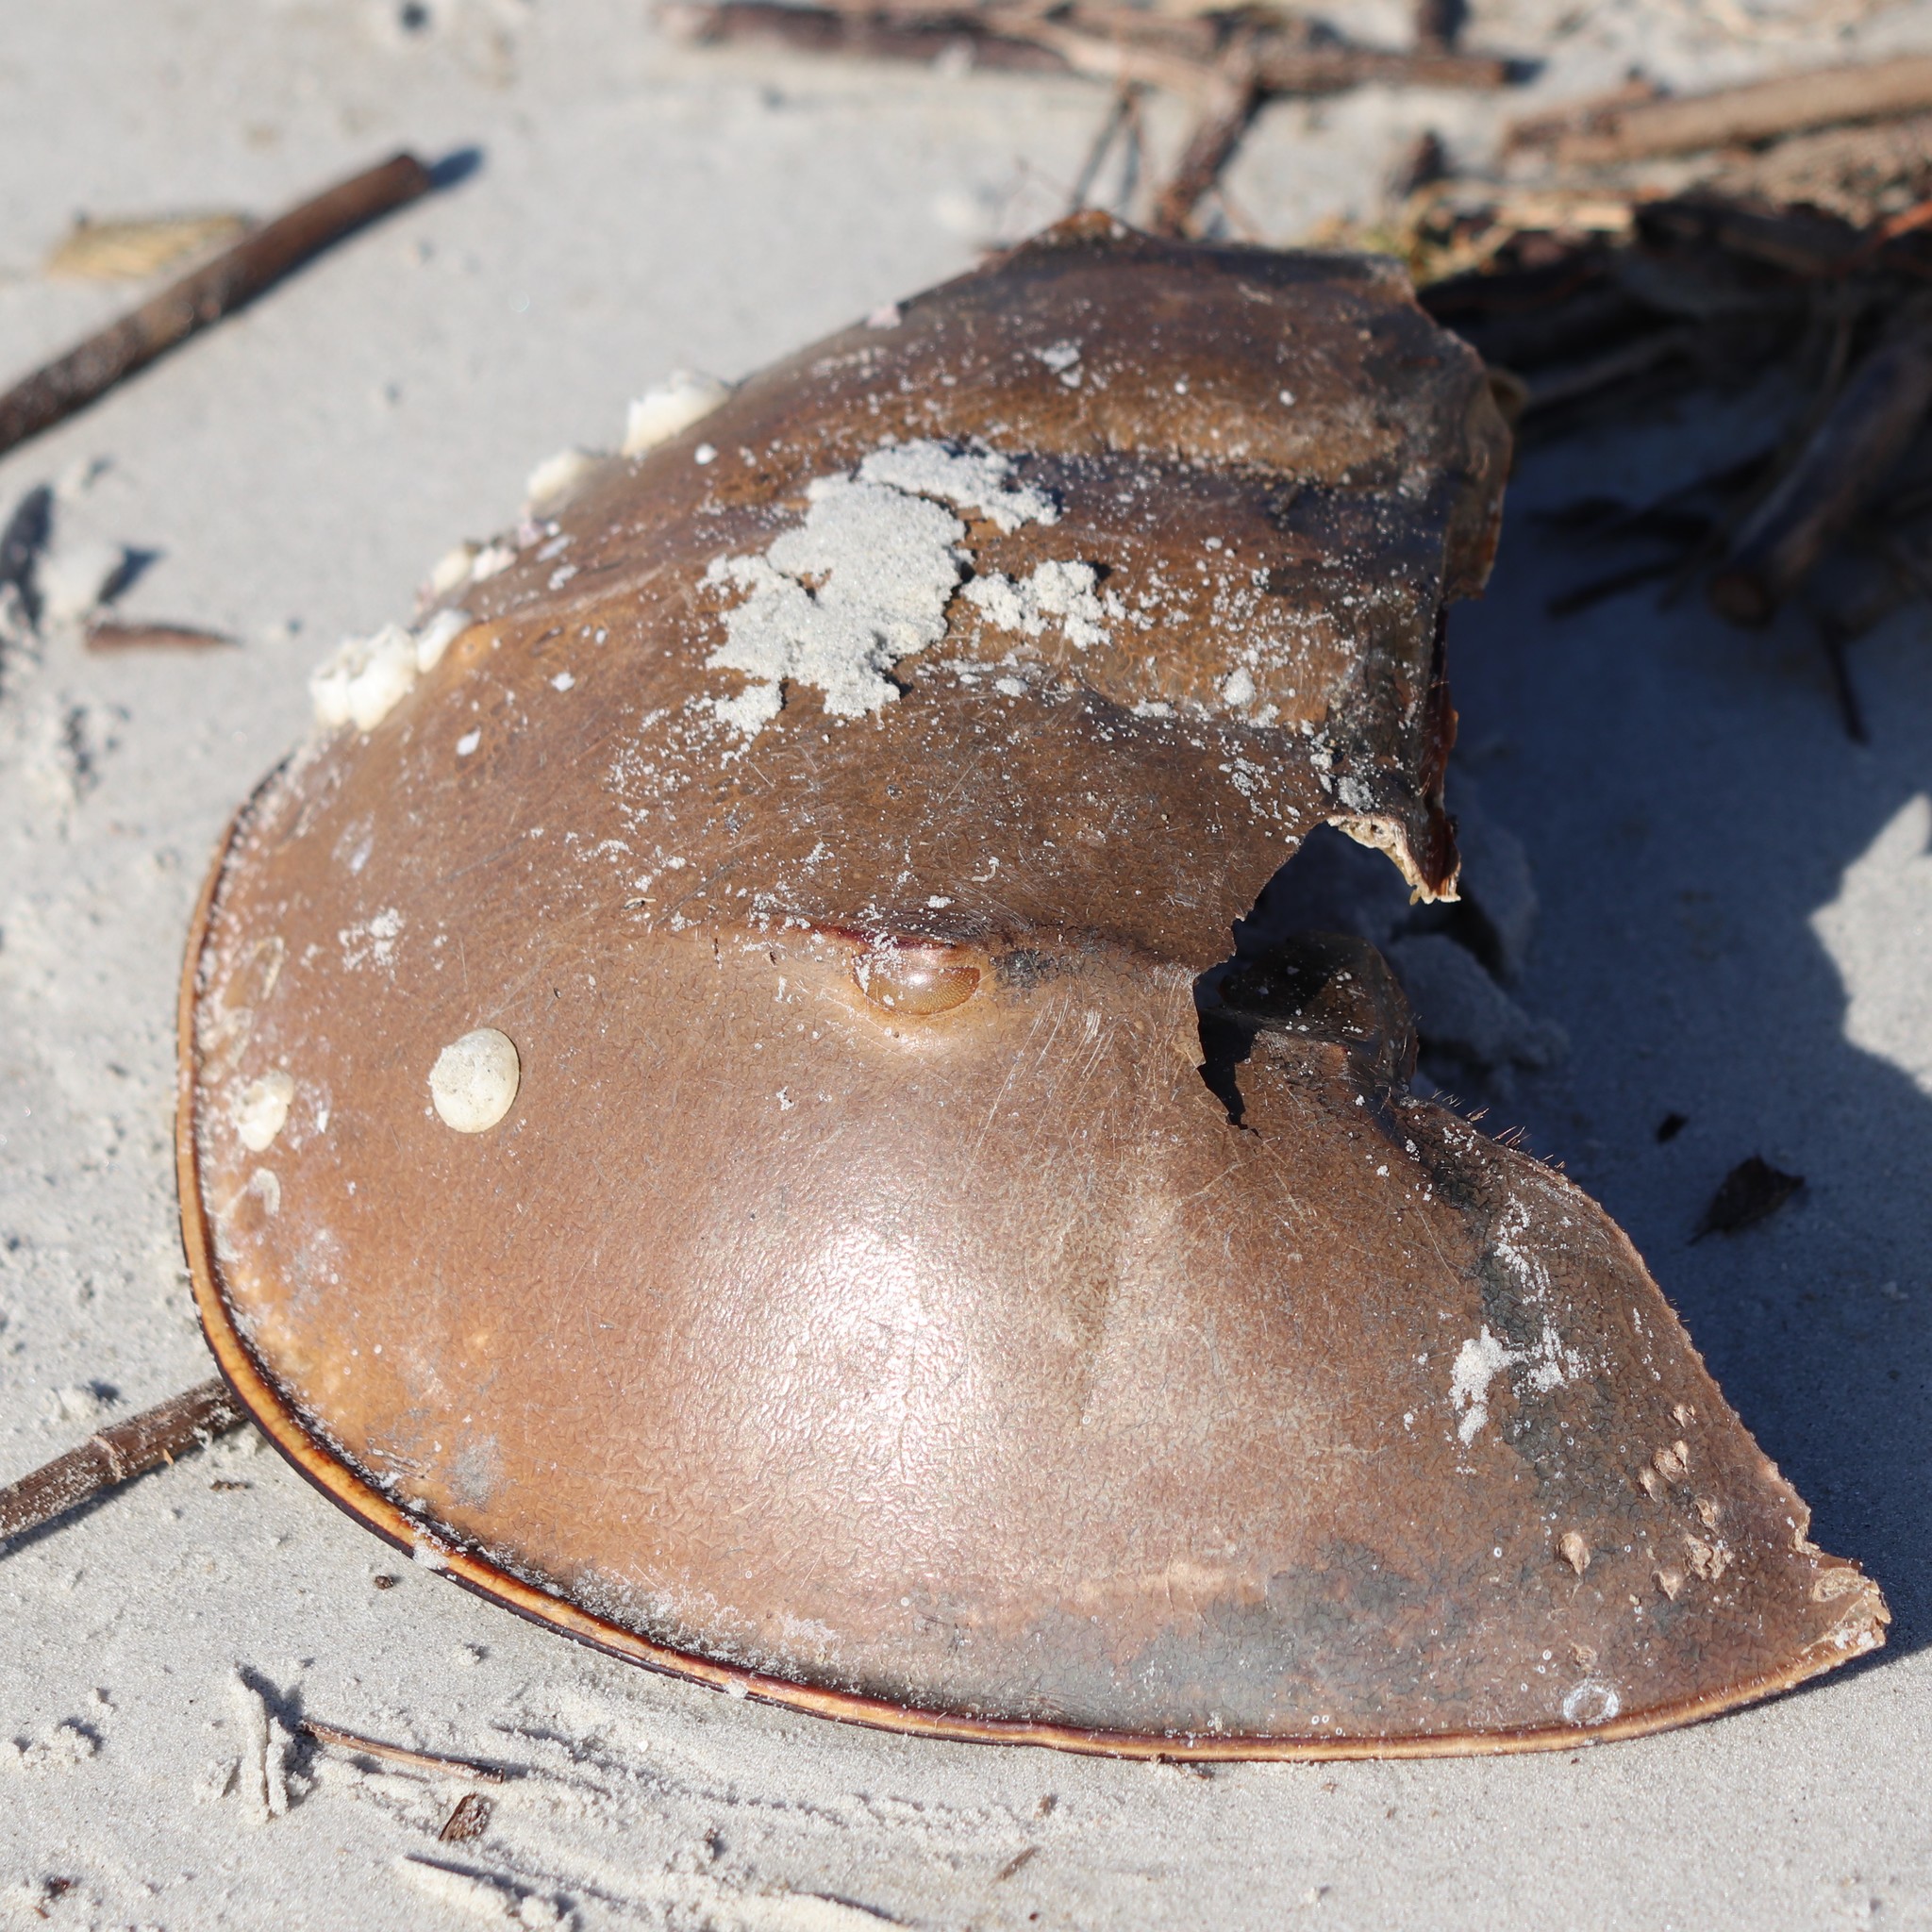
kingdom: Animalia
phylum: Arthropoda
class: Merostomata
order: Xiphosurida
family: Limulidae
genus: Limulus
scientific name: Limulus polyphemus
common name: Horseshoe crab
